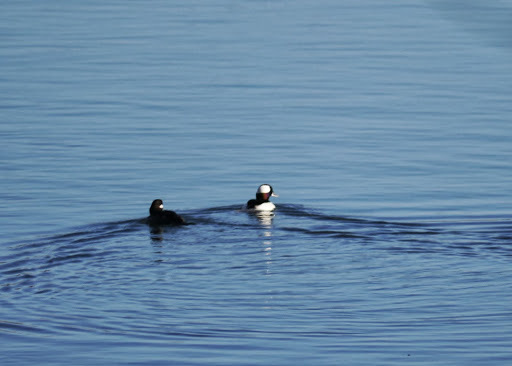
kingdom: Animalia
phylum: Chordata
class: Aves
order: Anseriformes
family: Anatidae
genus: Bucephala
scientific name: Bucephala albeola
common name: Bufflehead
